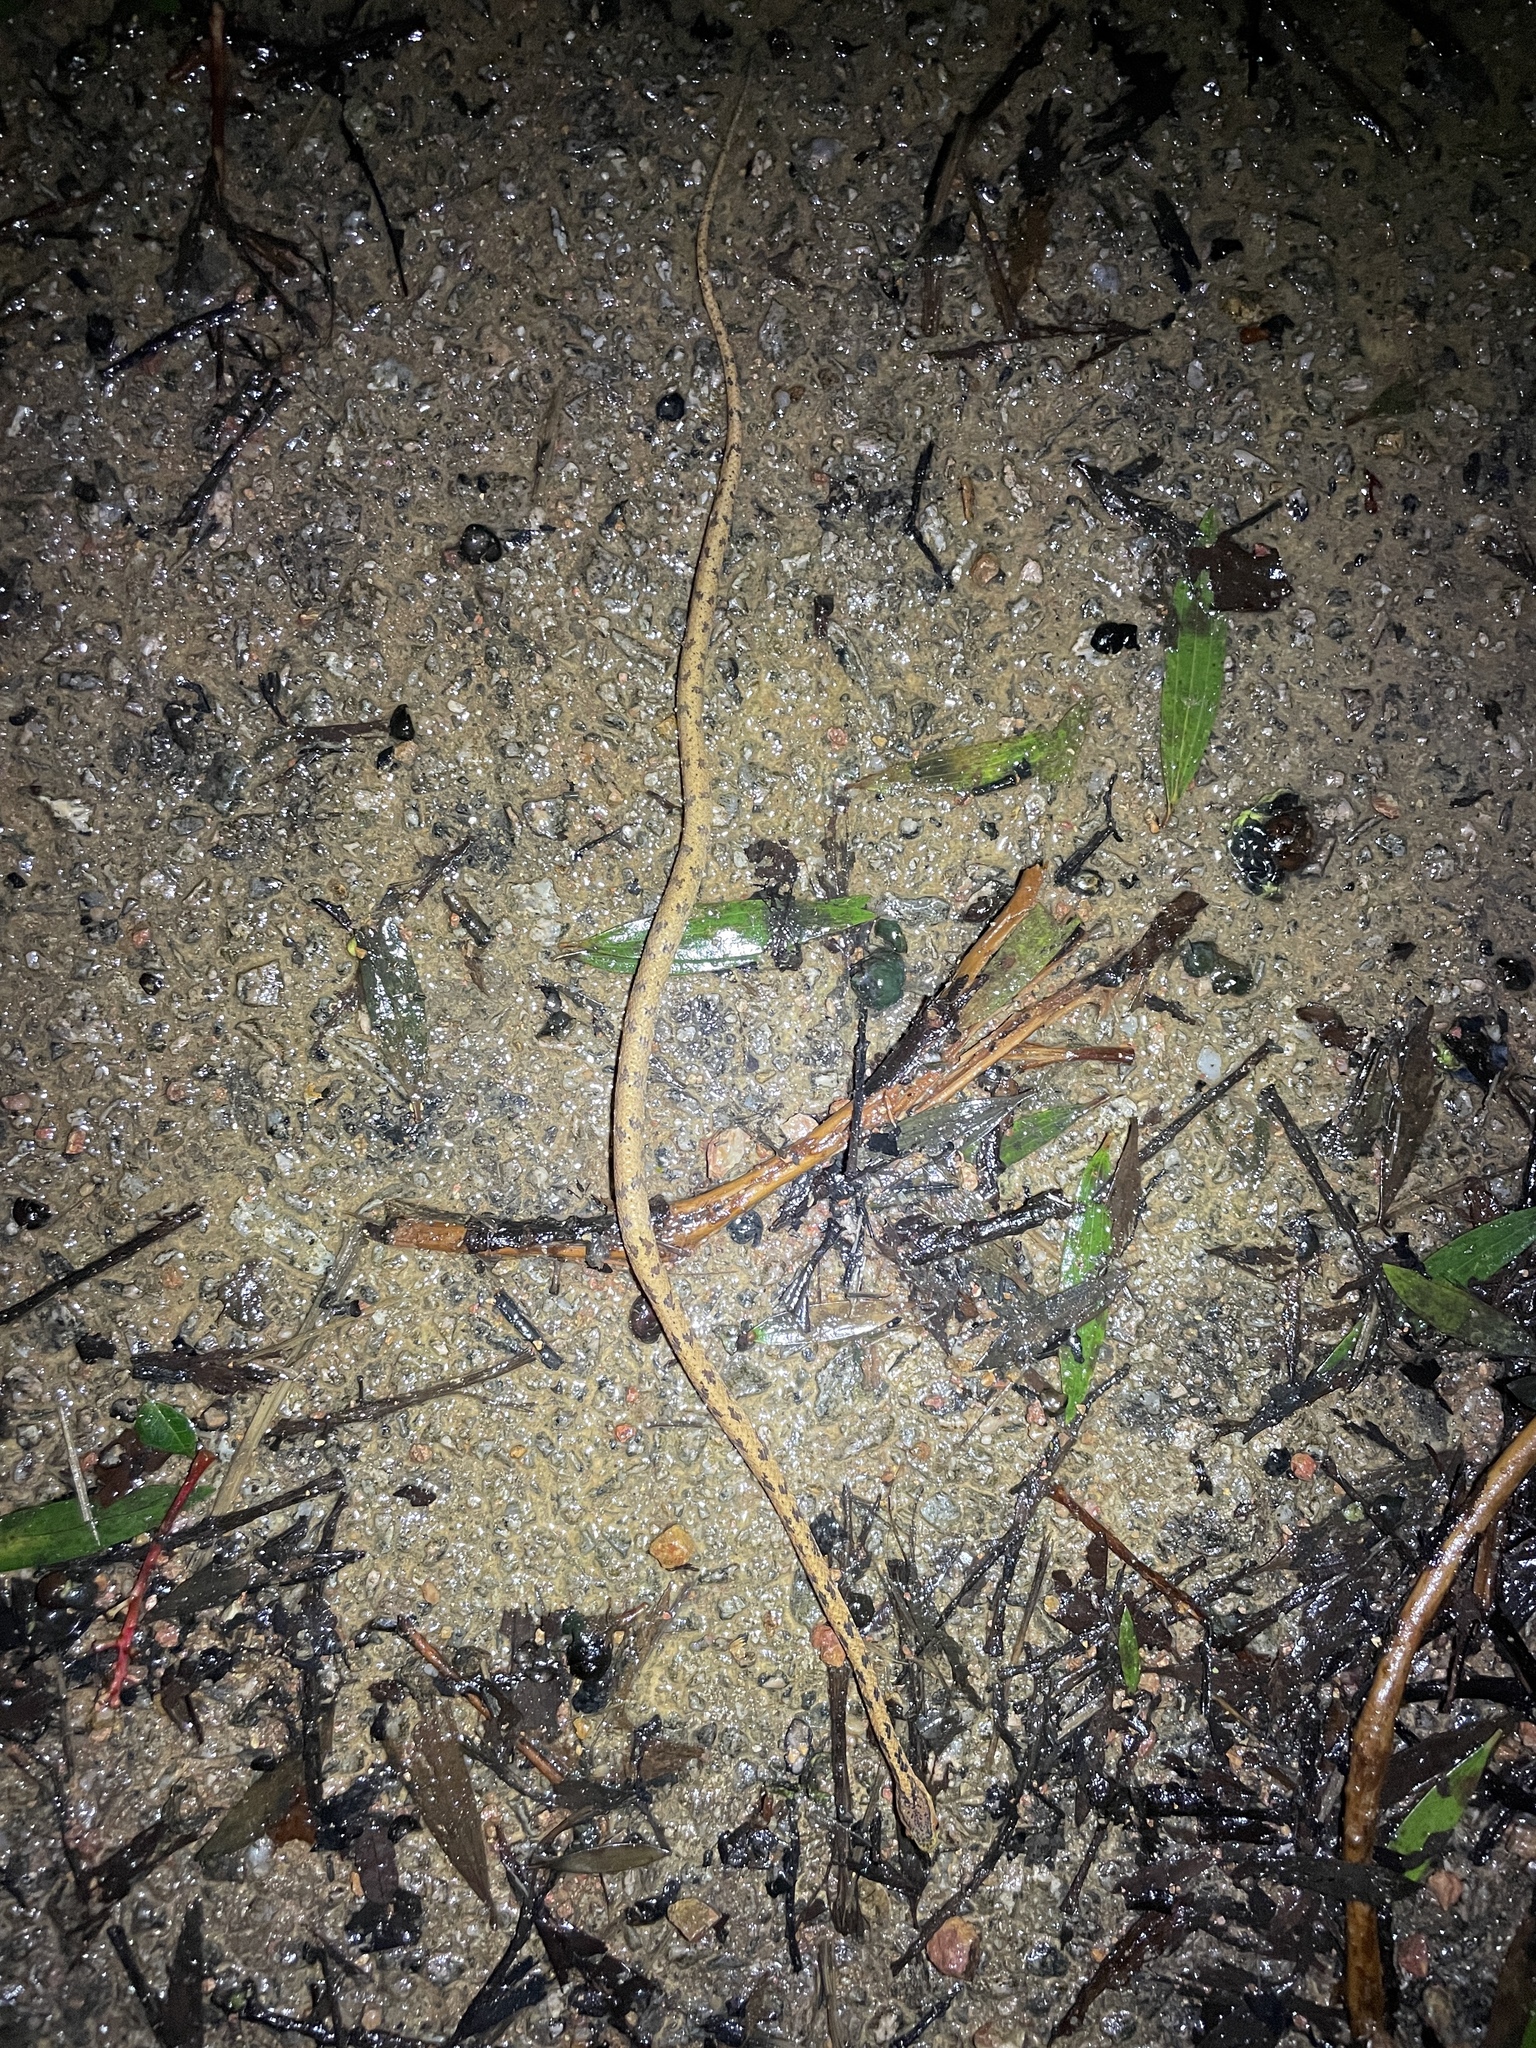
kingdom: Animalia
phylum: Chordata
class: Squamata
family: Pareidae
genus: Pareas
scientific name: Pareas chinensis
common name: Chinese slug snake
